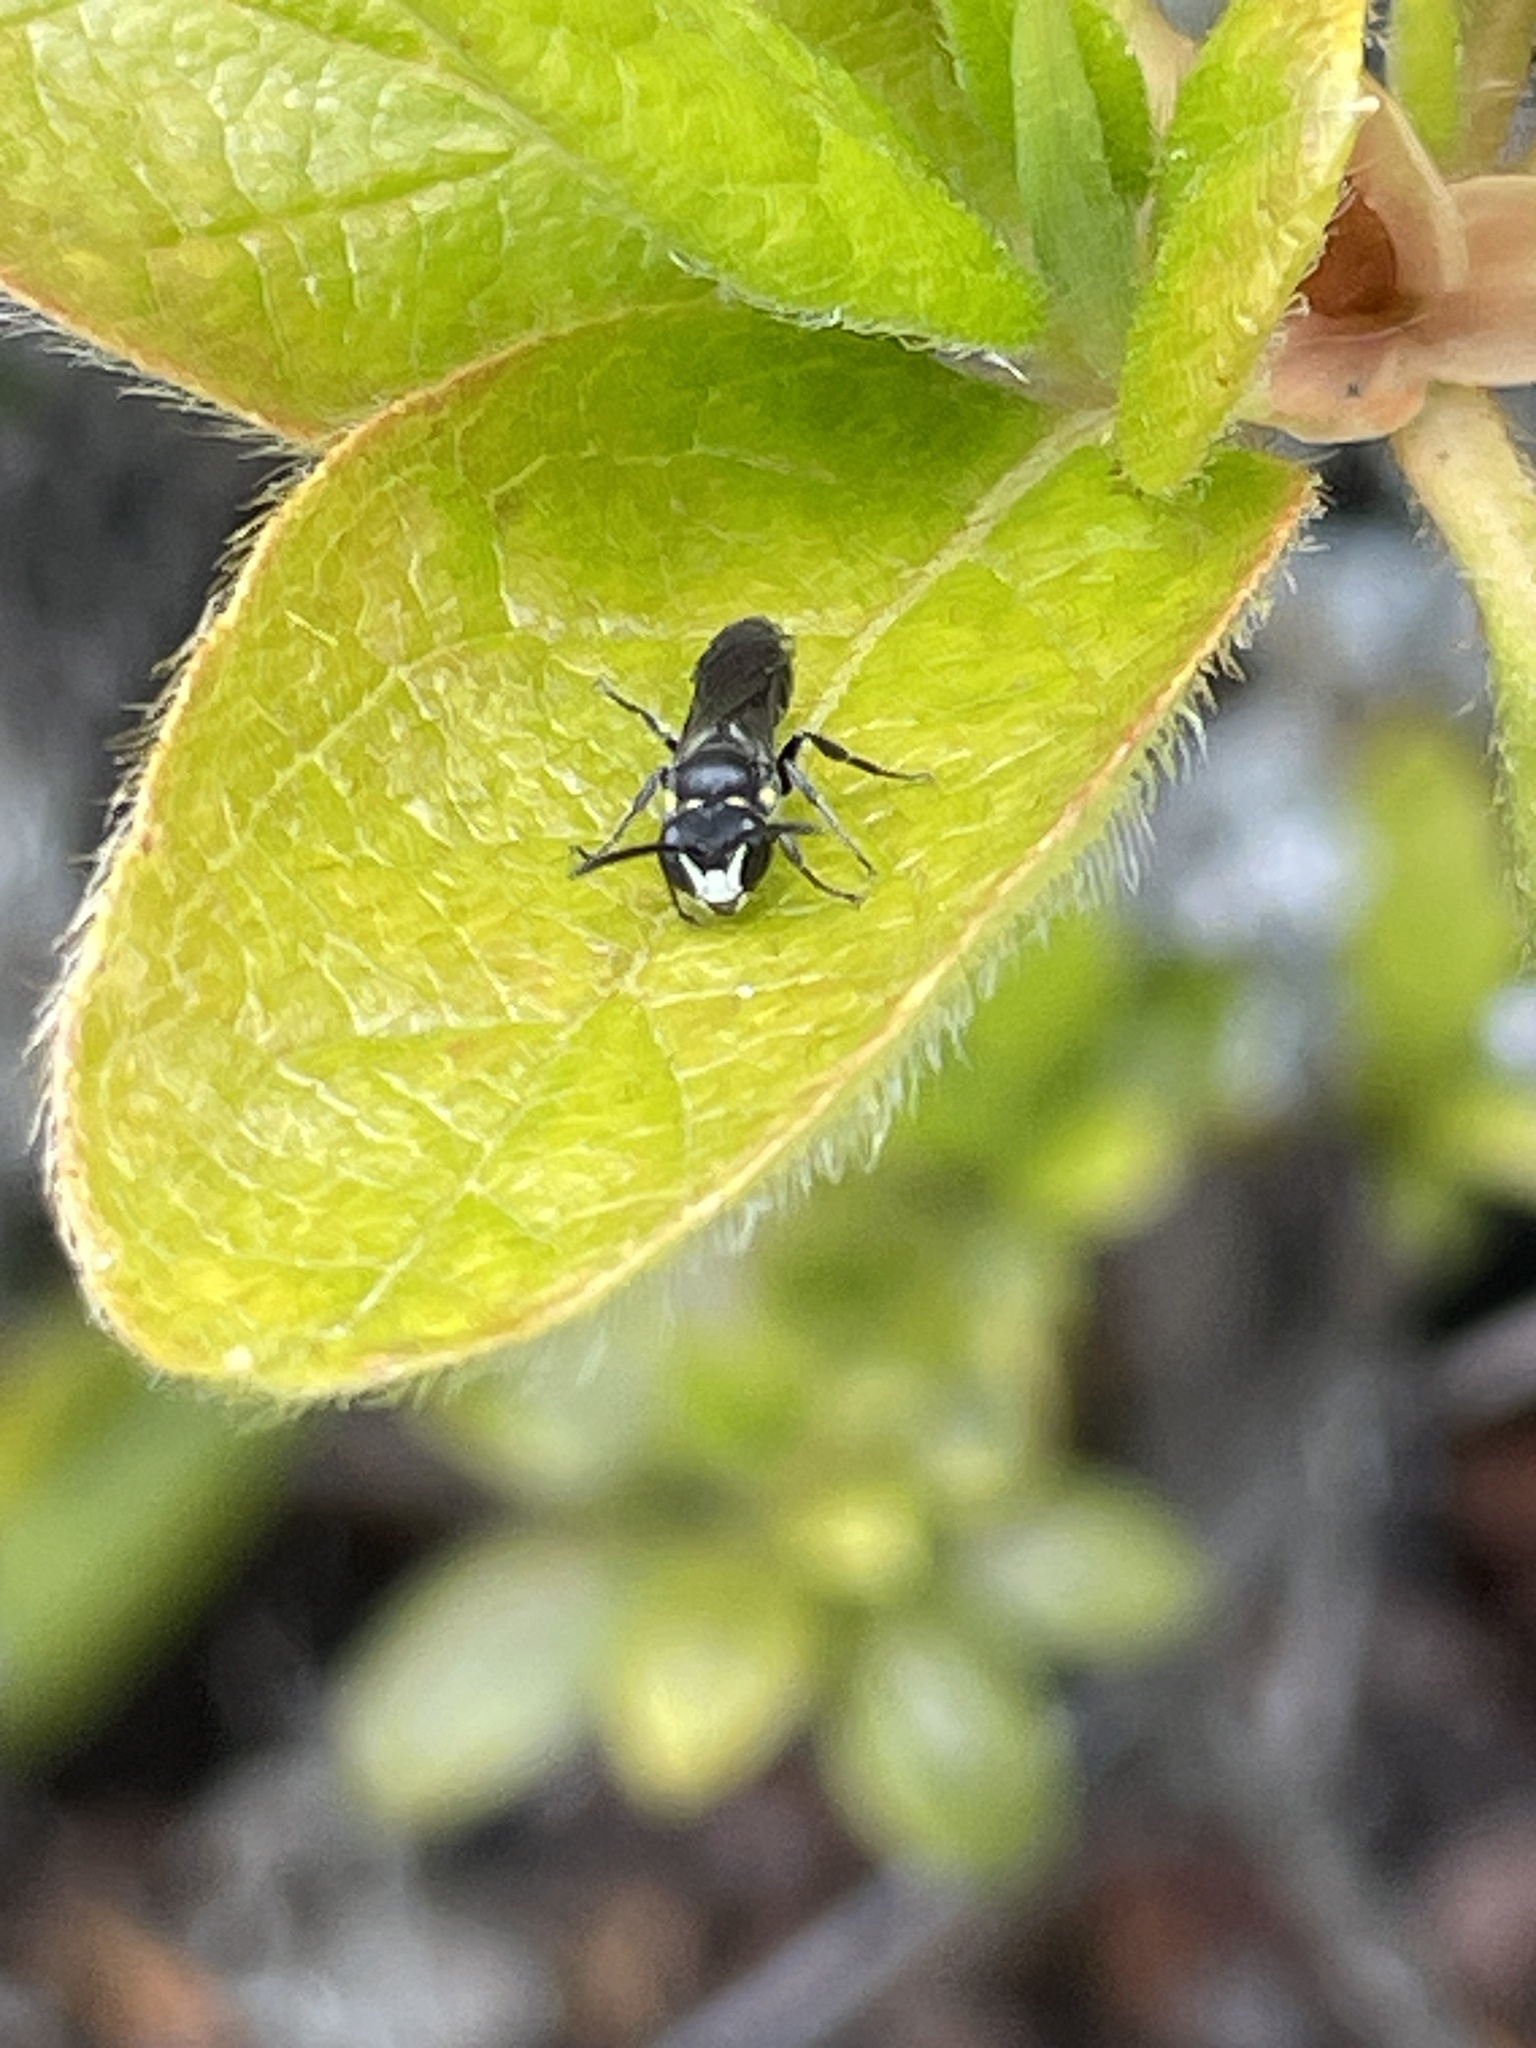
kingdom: Animalia
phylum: Arthropoda
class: Insecta
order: Hymenoptera
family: Colletidae
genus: Hylaeus
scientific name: Hylaeus relegatus
